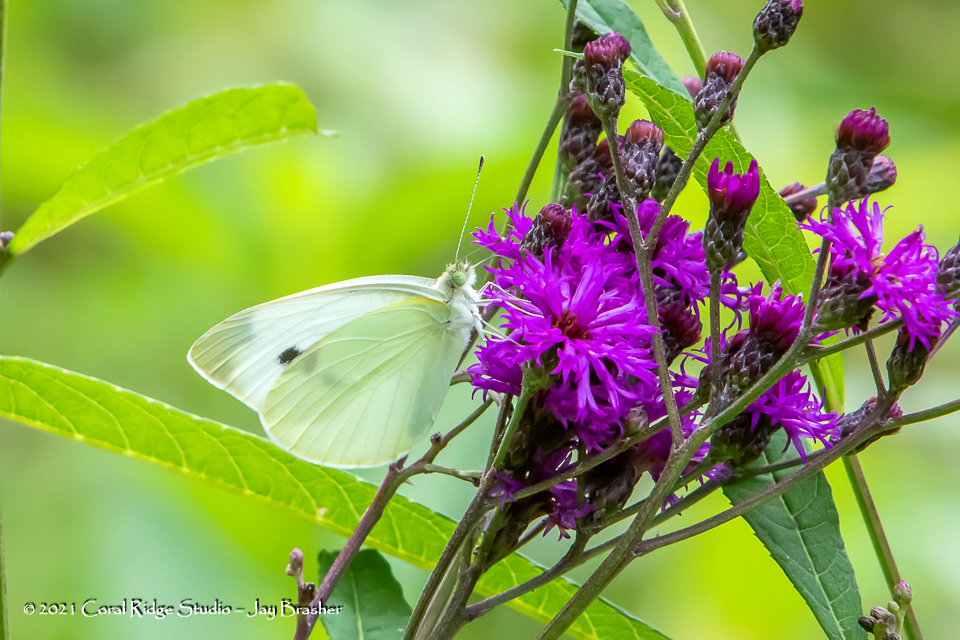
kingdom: Animalia
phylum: Arthropoda
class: Insecta
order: Lepidoptera
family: Pieridae
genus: Pieris
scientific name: Pieris rapae
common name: Small white
